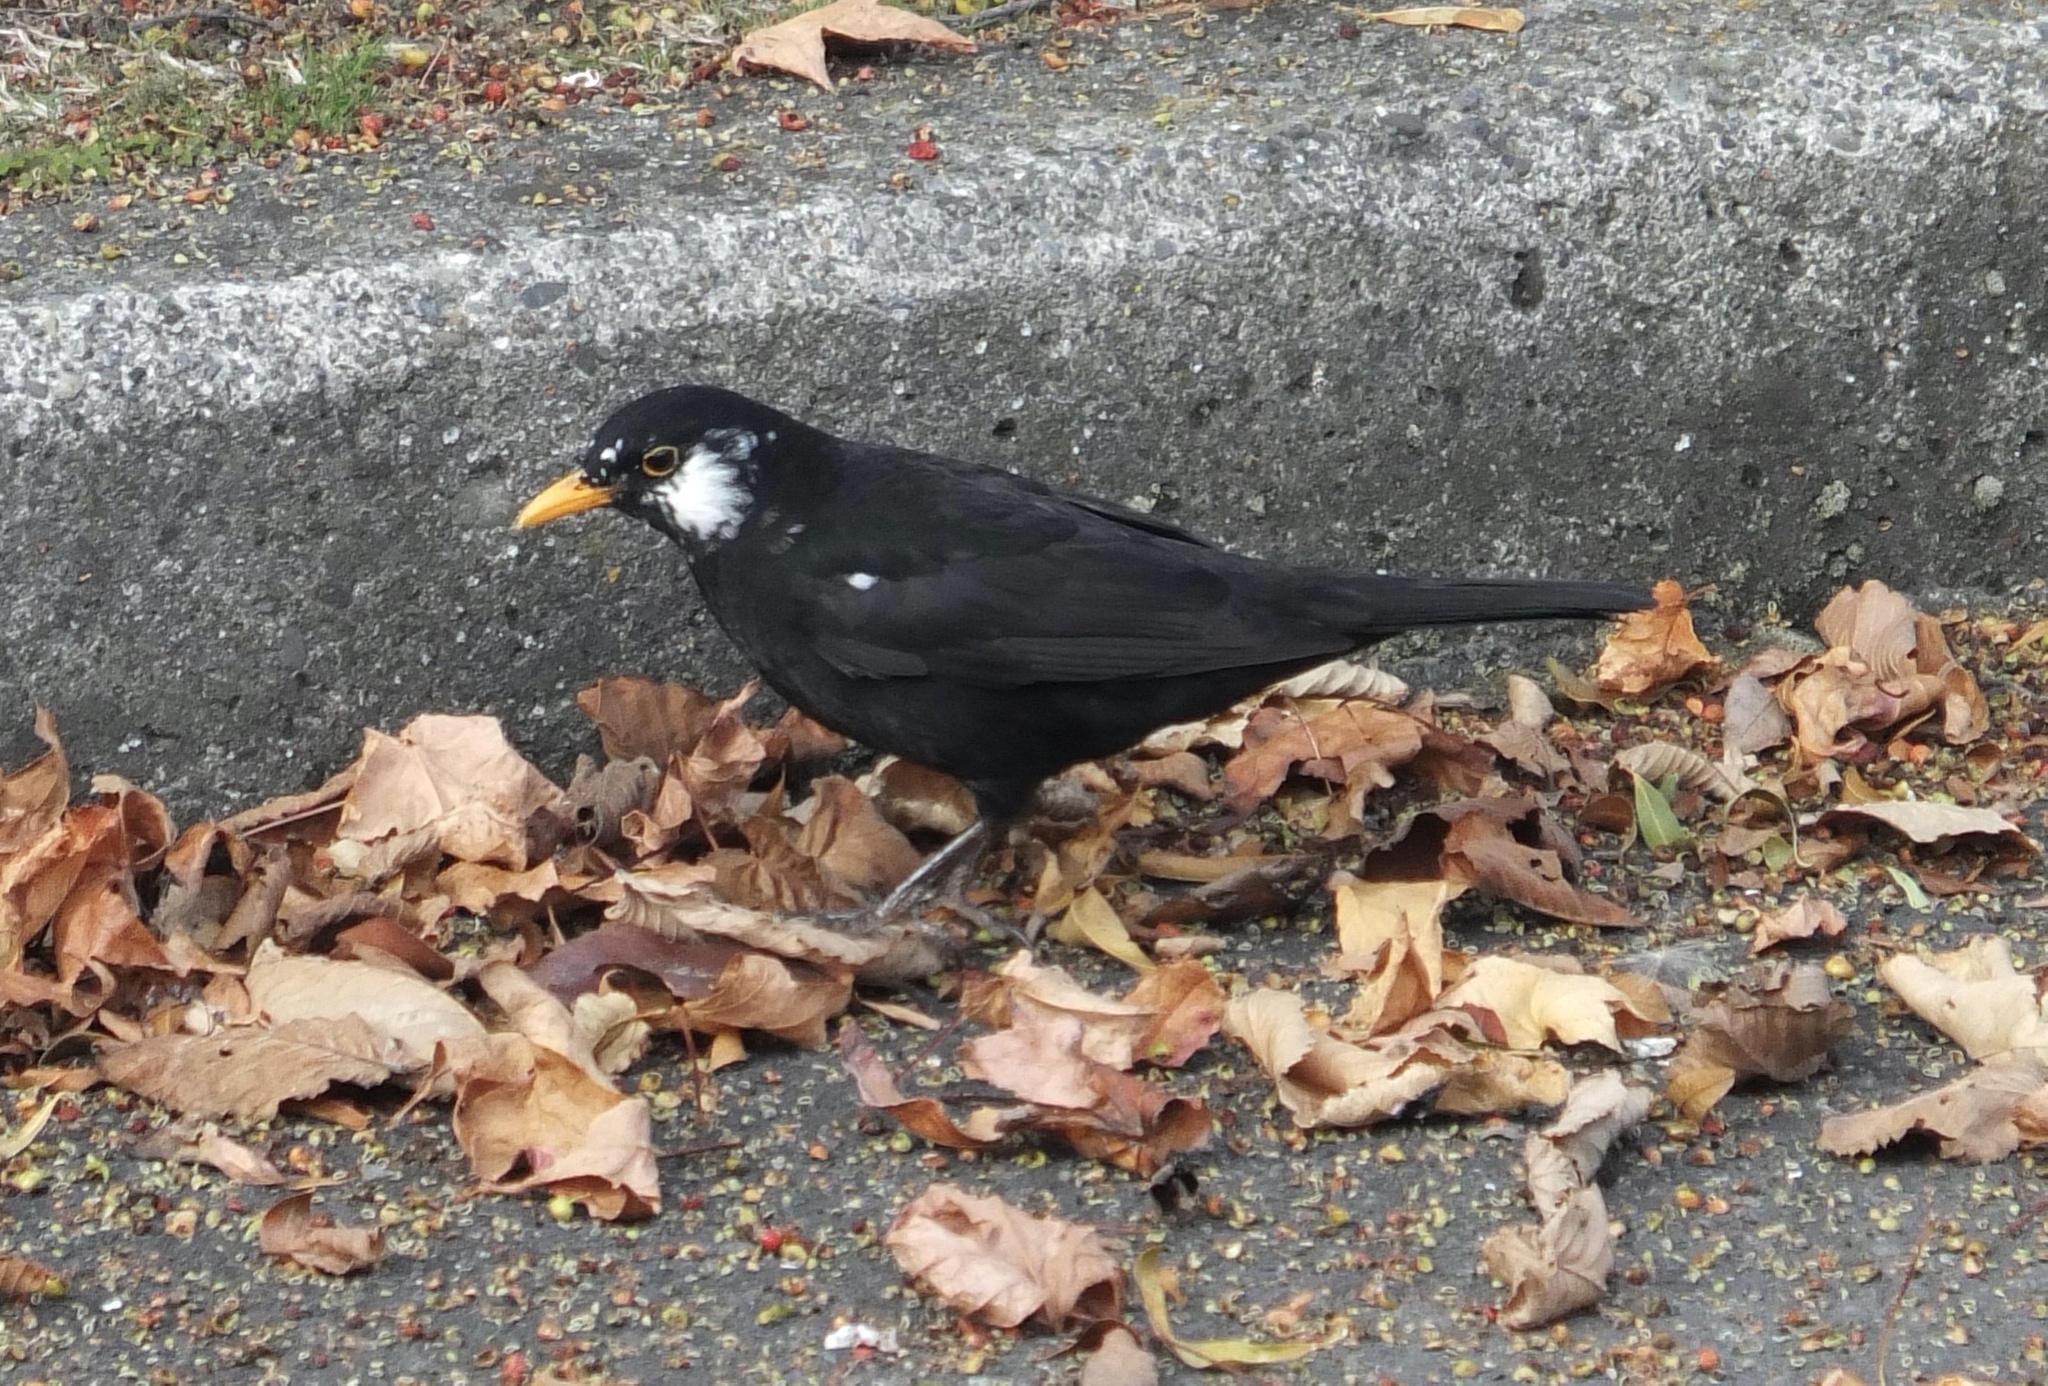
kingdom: Animalia
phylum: Chordata
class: Aves
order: Passeriformes
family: Turdidae
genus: Turdus
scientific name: Turdus merula
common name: Common blackbird
